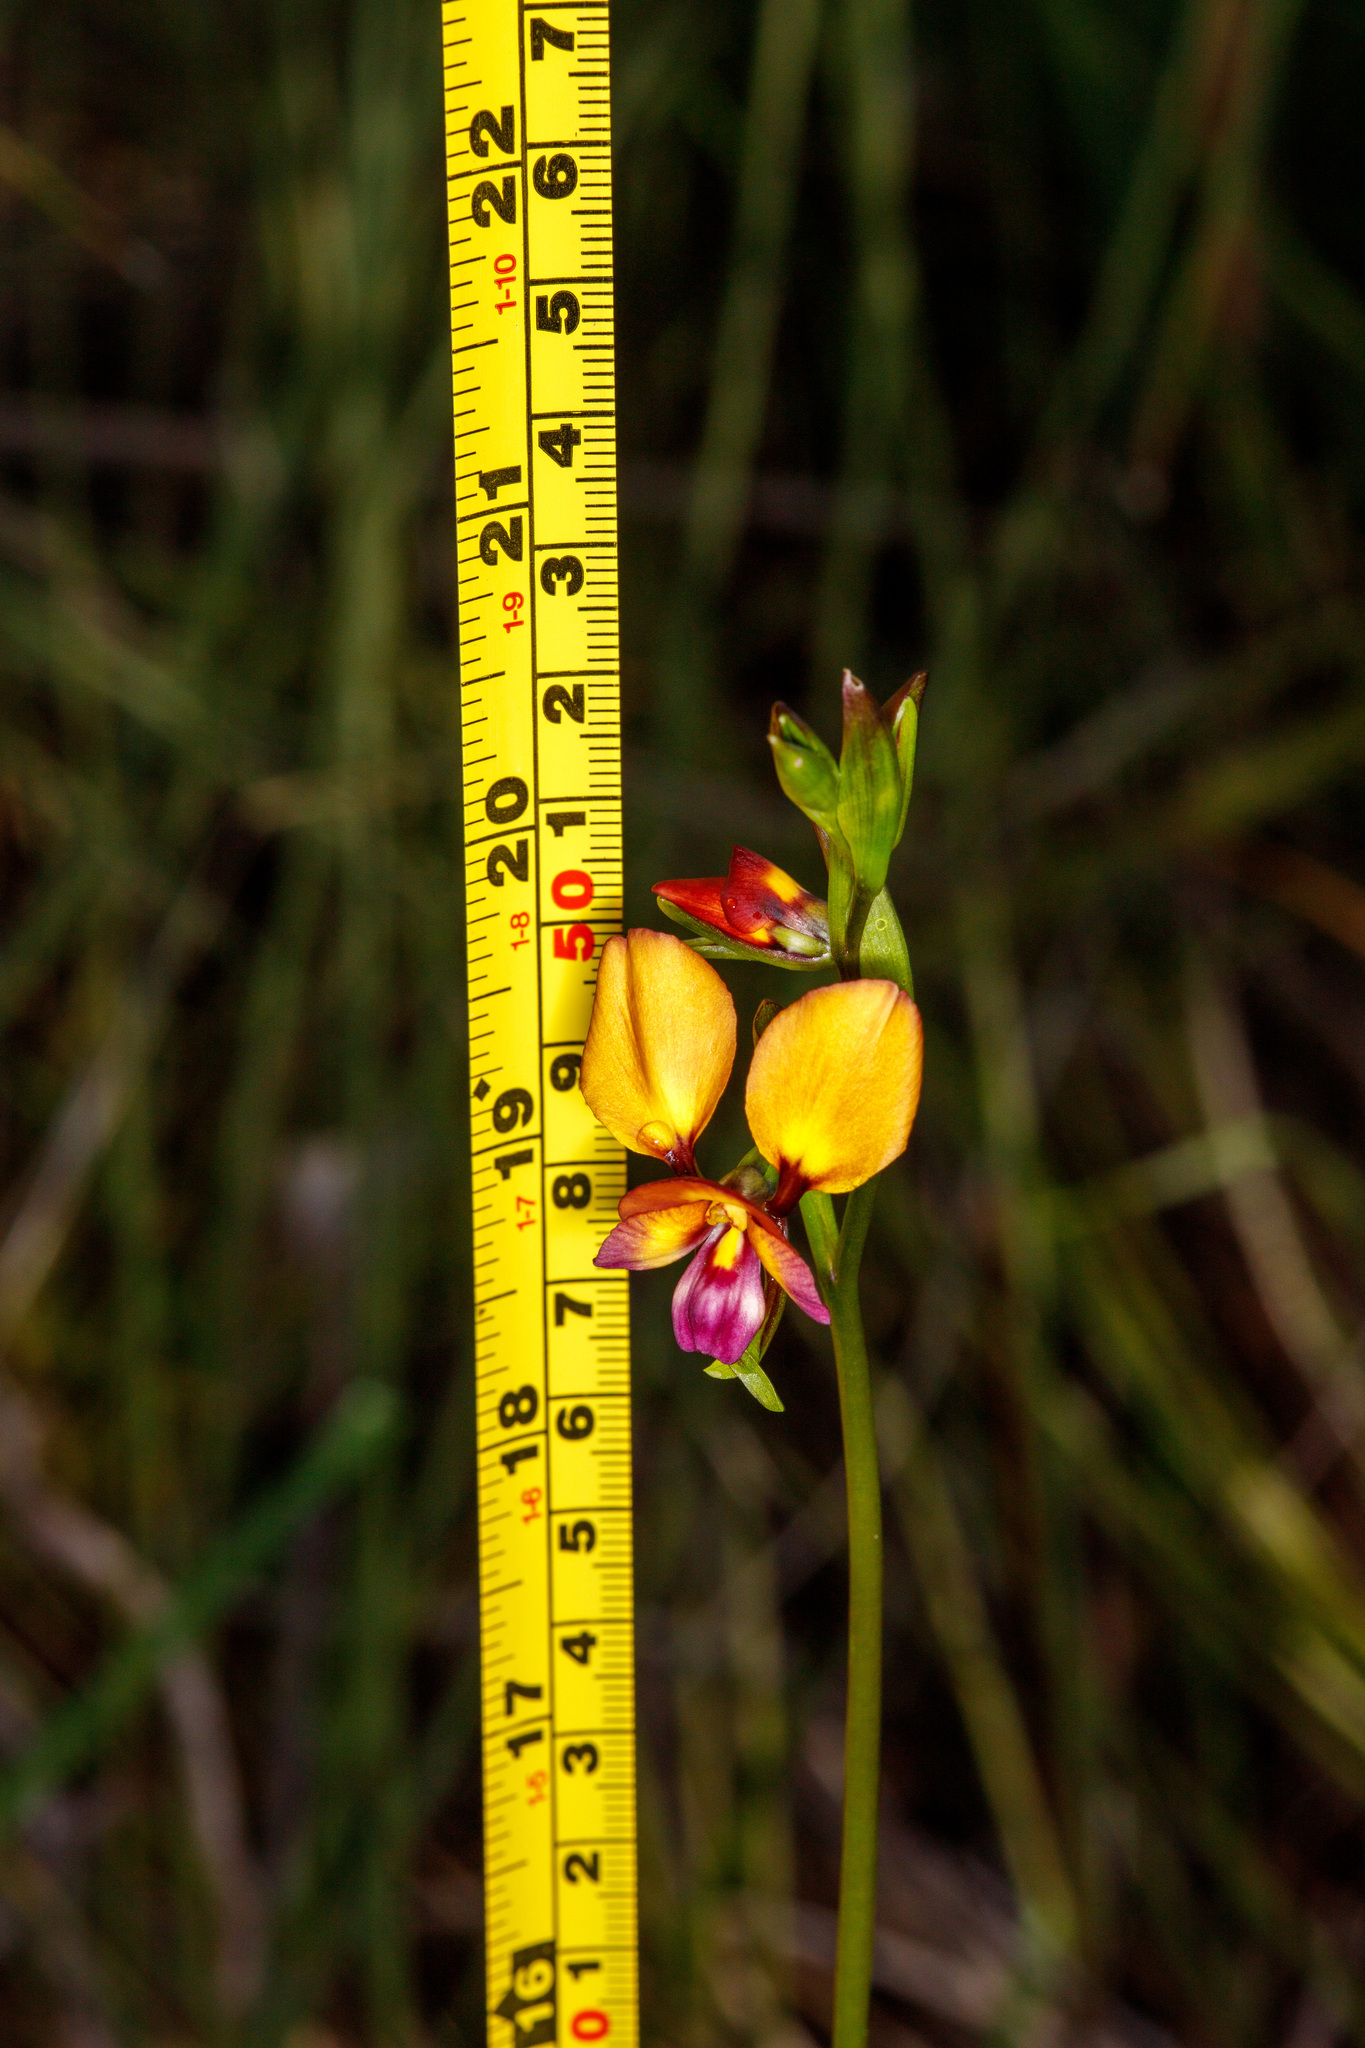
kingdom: Plantae
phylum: Tracheophyta
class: Liliopsida
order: Asparagales
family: Orchidaceae
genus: Diuris
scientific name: Diuris magnifica
